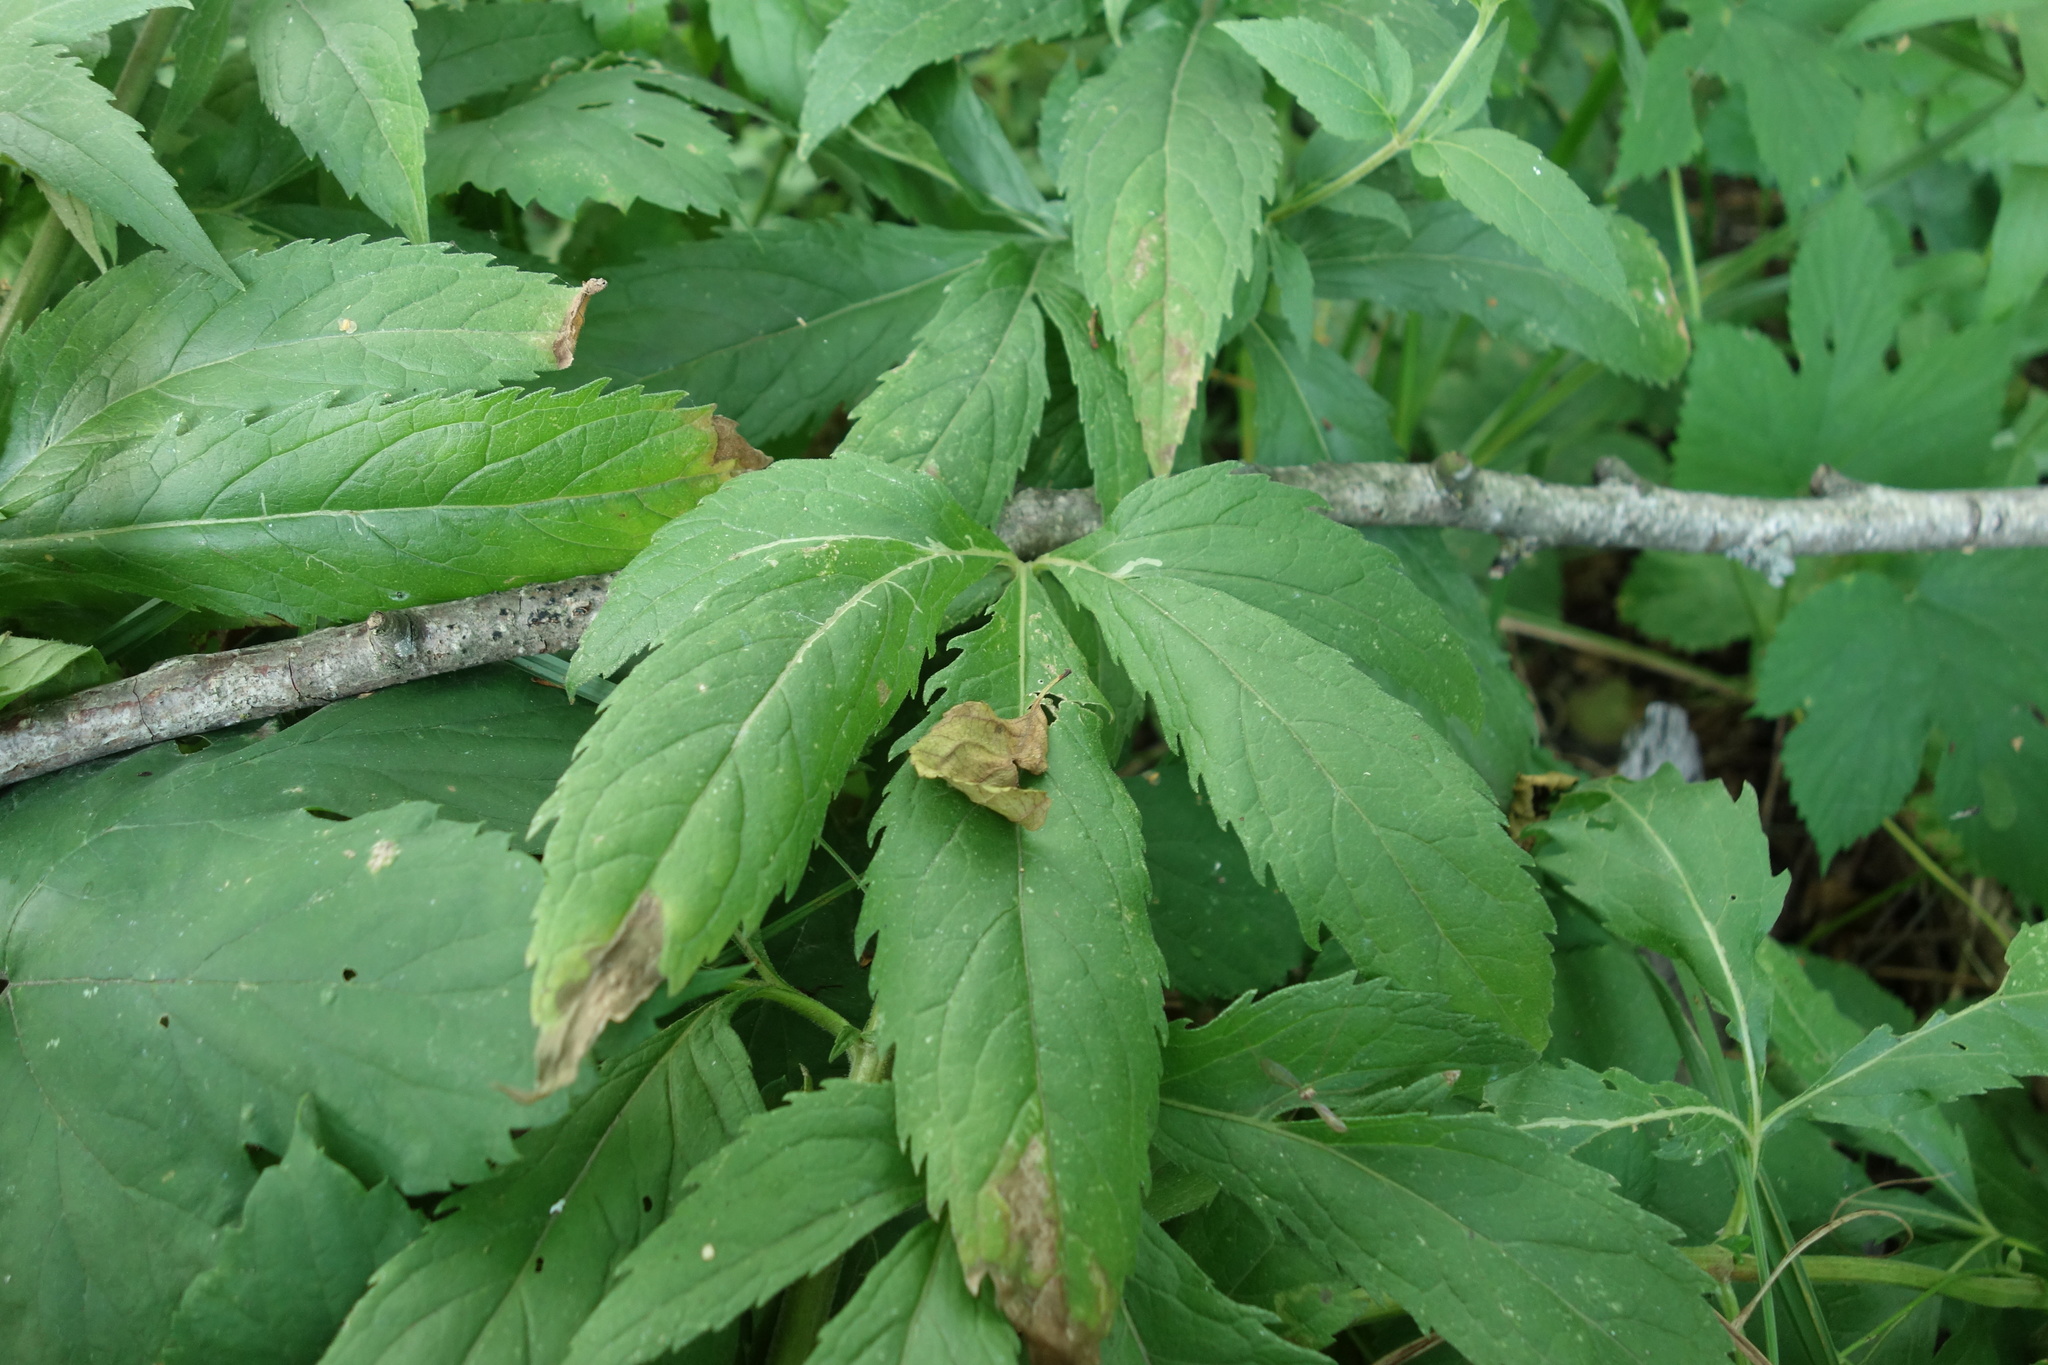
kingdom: Plantae
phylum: Tracheophyta
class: Magnoliopsida
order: Asterales
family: Asteraceae
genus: Eupatorium
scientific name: Eupatorium cannabinum
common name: Hemp-agrimony
